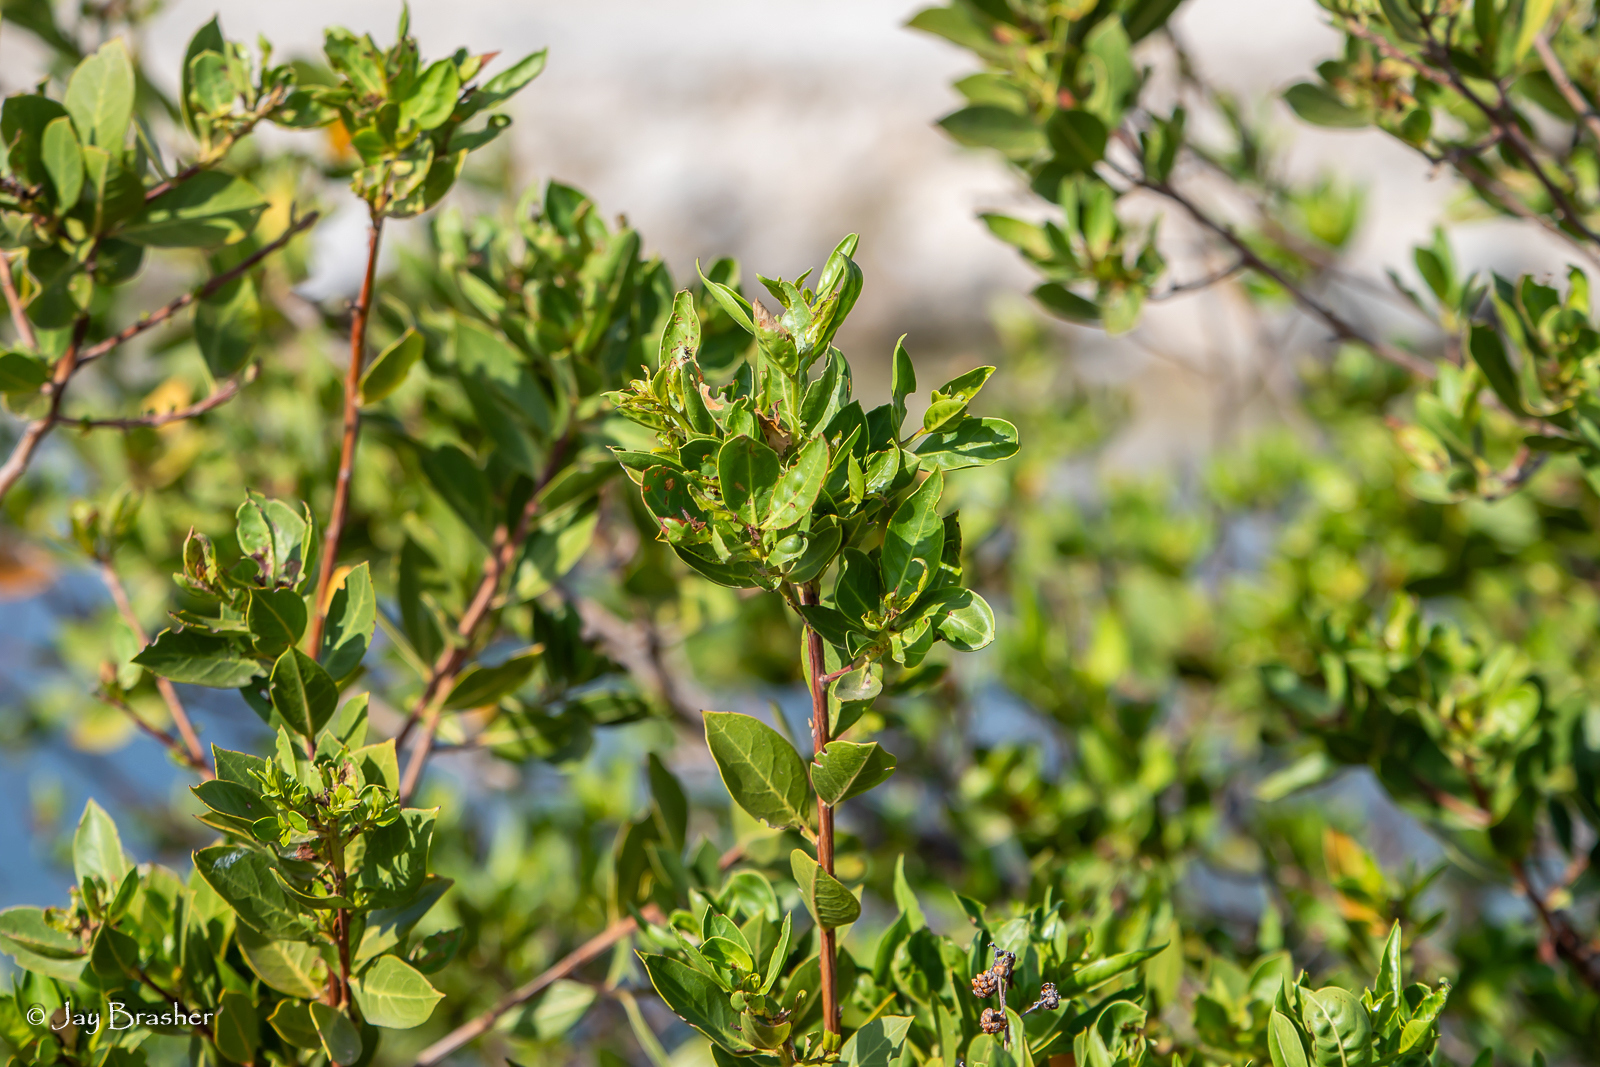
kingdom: Plantae
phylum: Tracheophyta
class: Magnoliopsida
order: Myrtales
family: Combretaceae
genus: Conocarpus
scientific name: Conocarpus erectus
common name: Button mangrove
